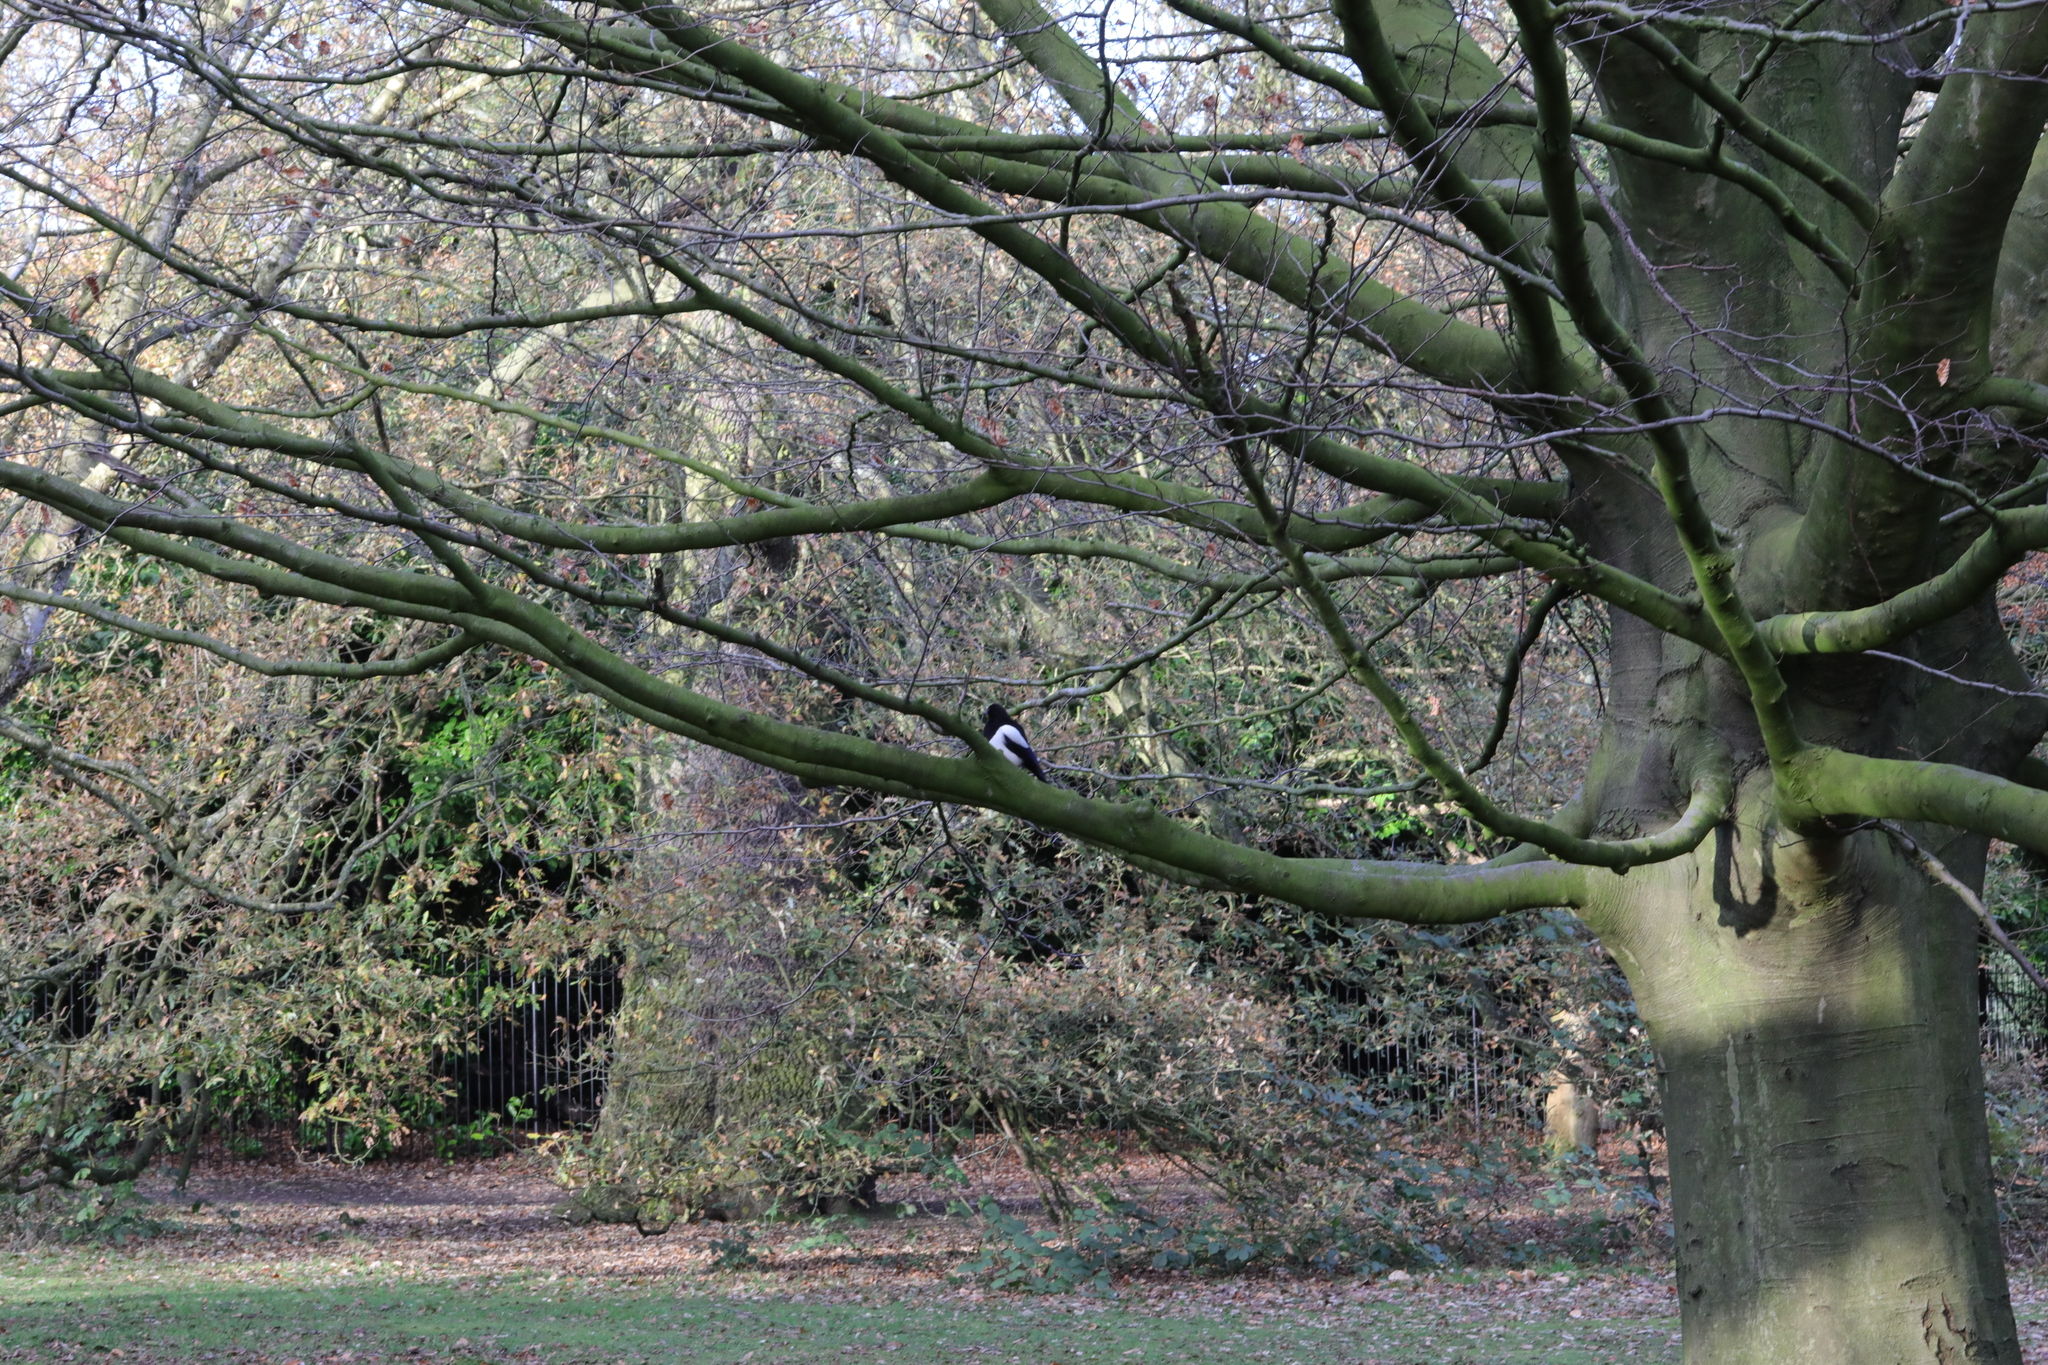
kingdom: Animalia
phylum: Chordata
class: Aves
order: Passeriformes
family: Corvidae
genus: Pica
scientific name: Pica pica
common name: Eurasian magpie
